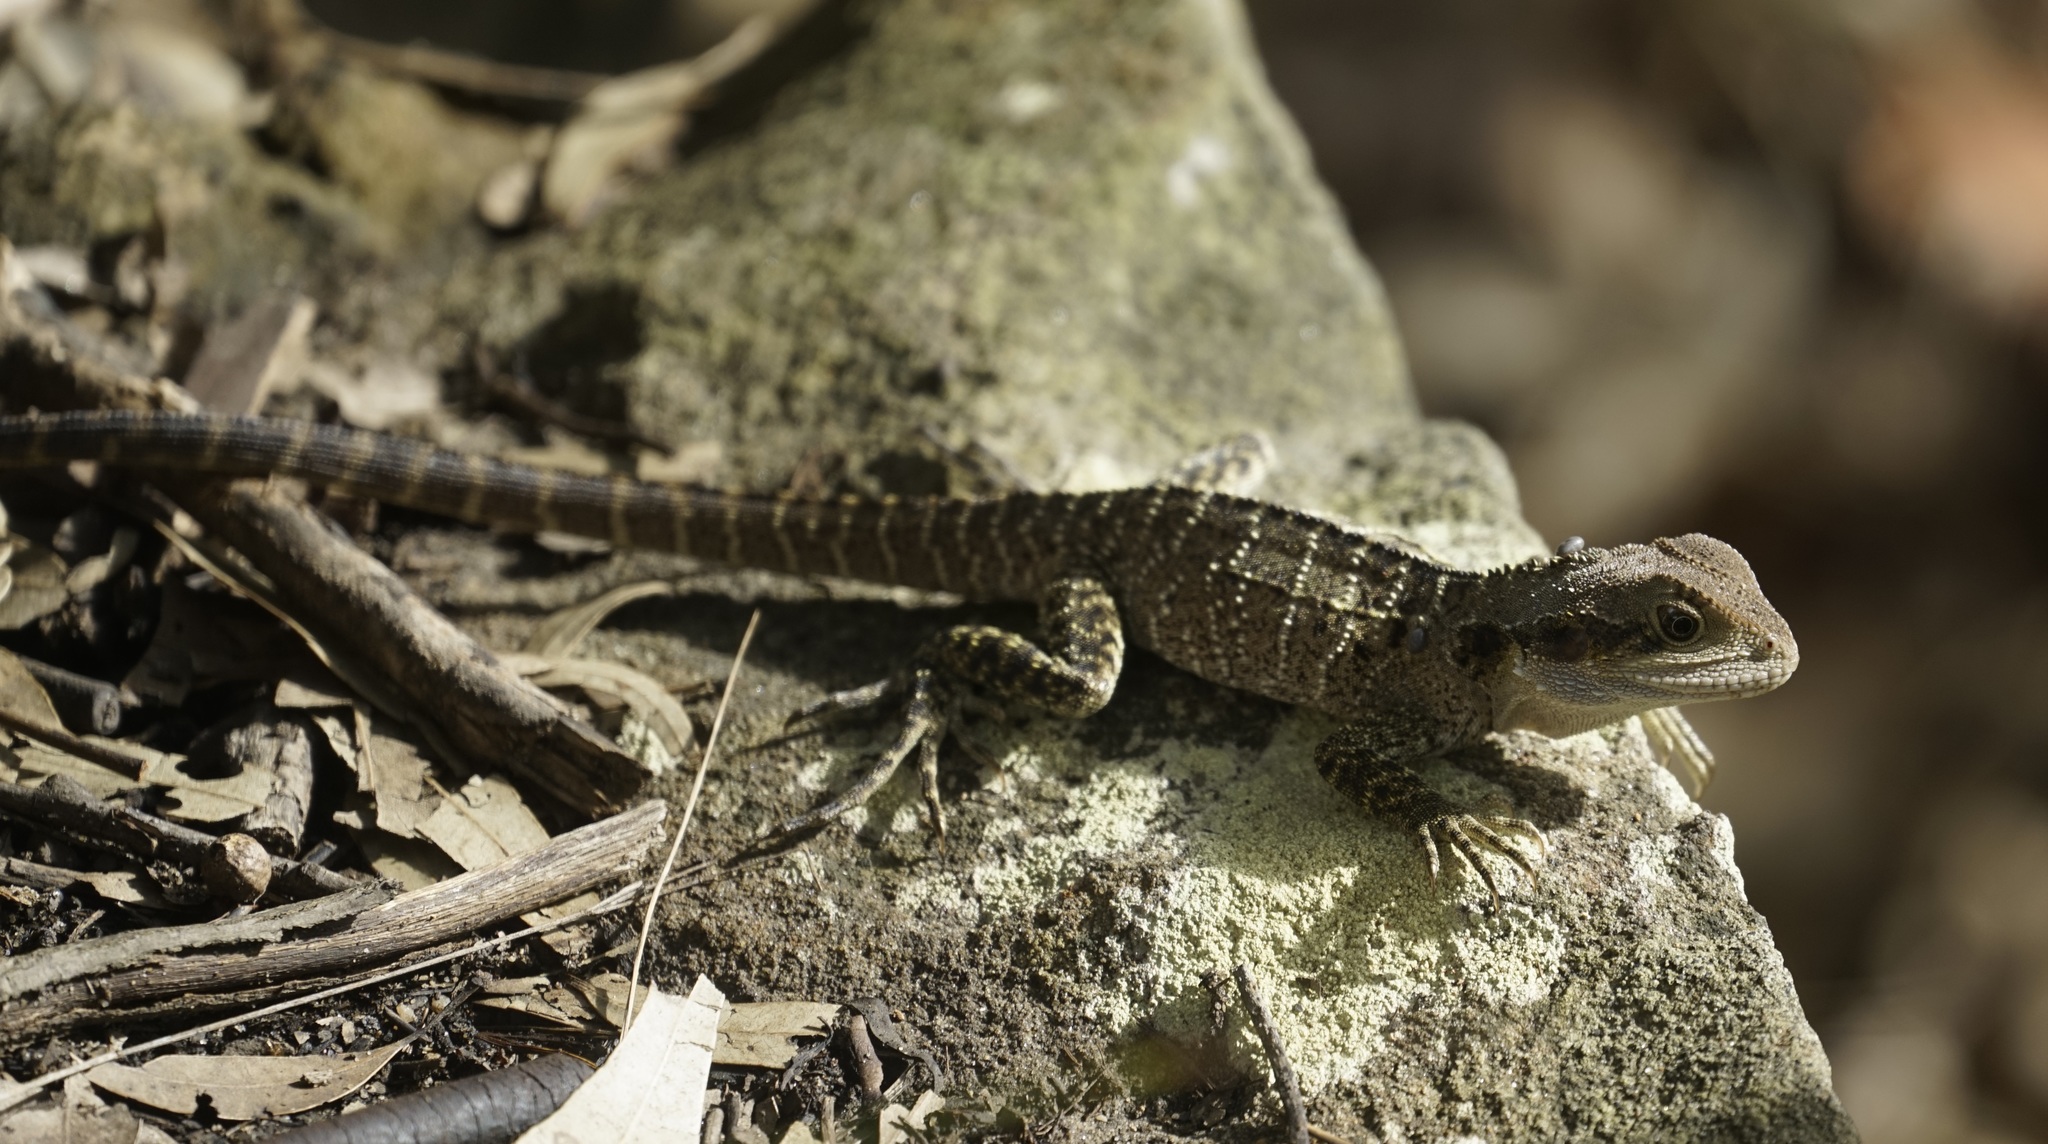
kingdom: Animalia
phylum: Chordata
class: Squamata
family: Agamidae
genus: Intellagama
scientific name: Intellagama lesueurii
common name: Eastern water dragon
